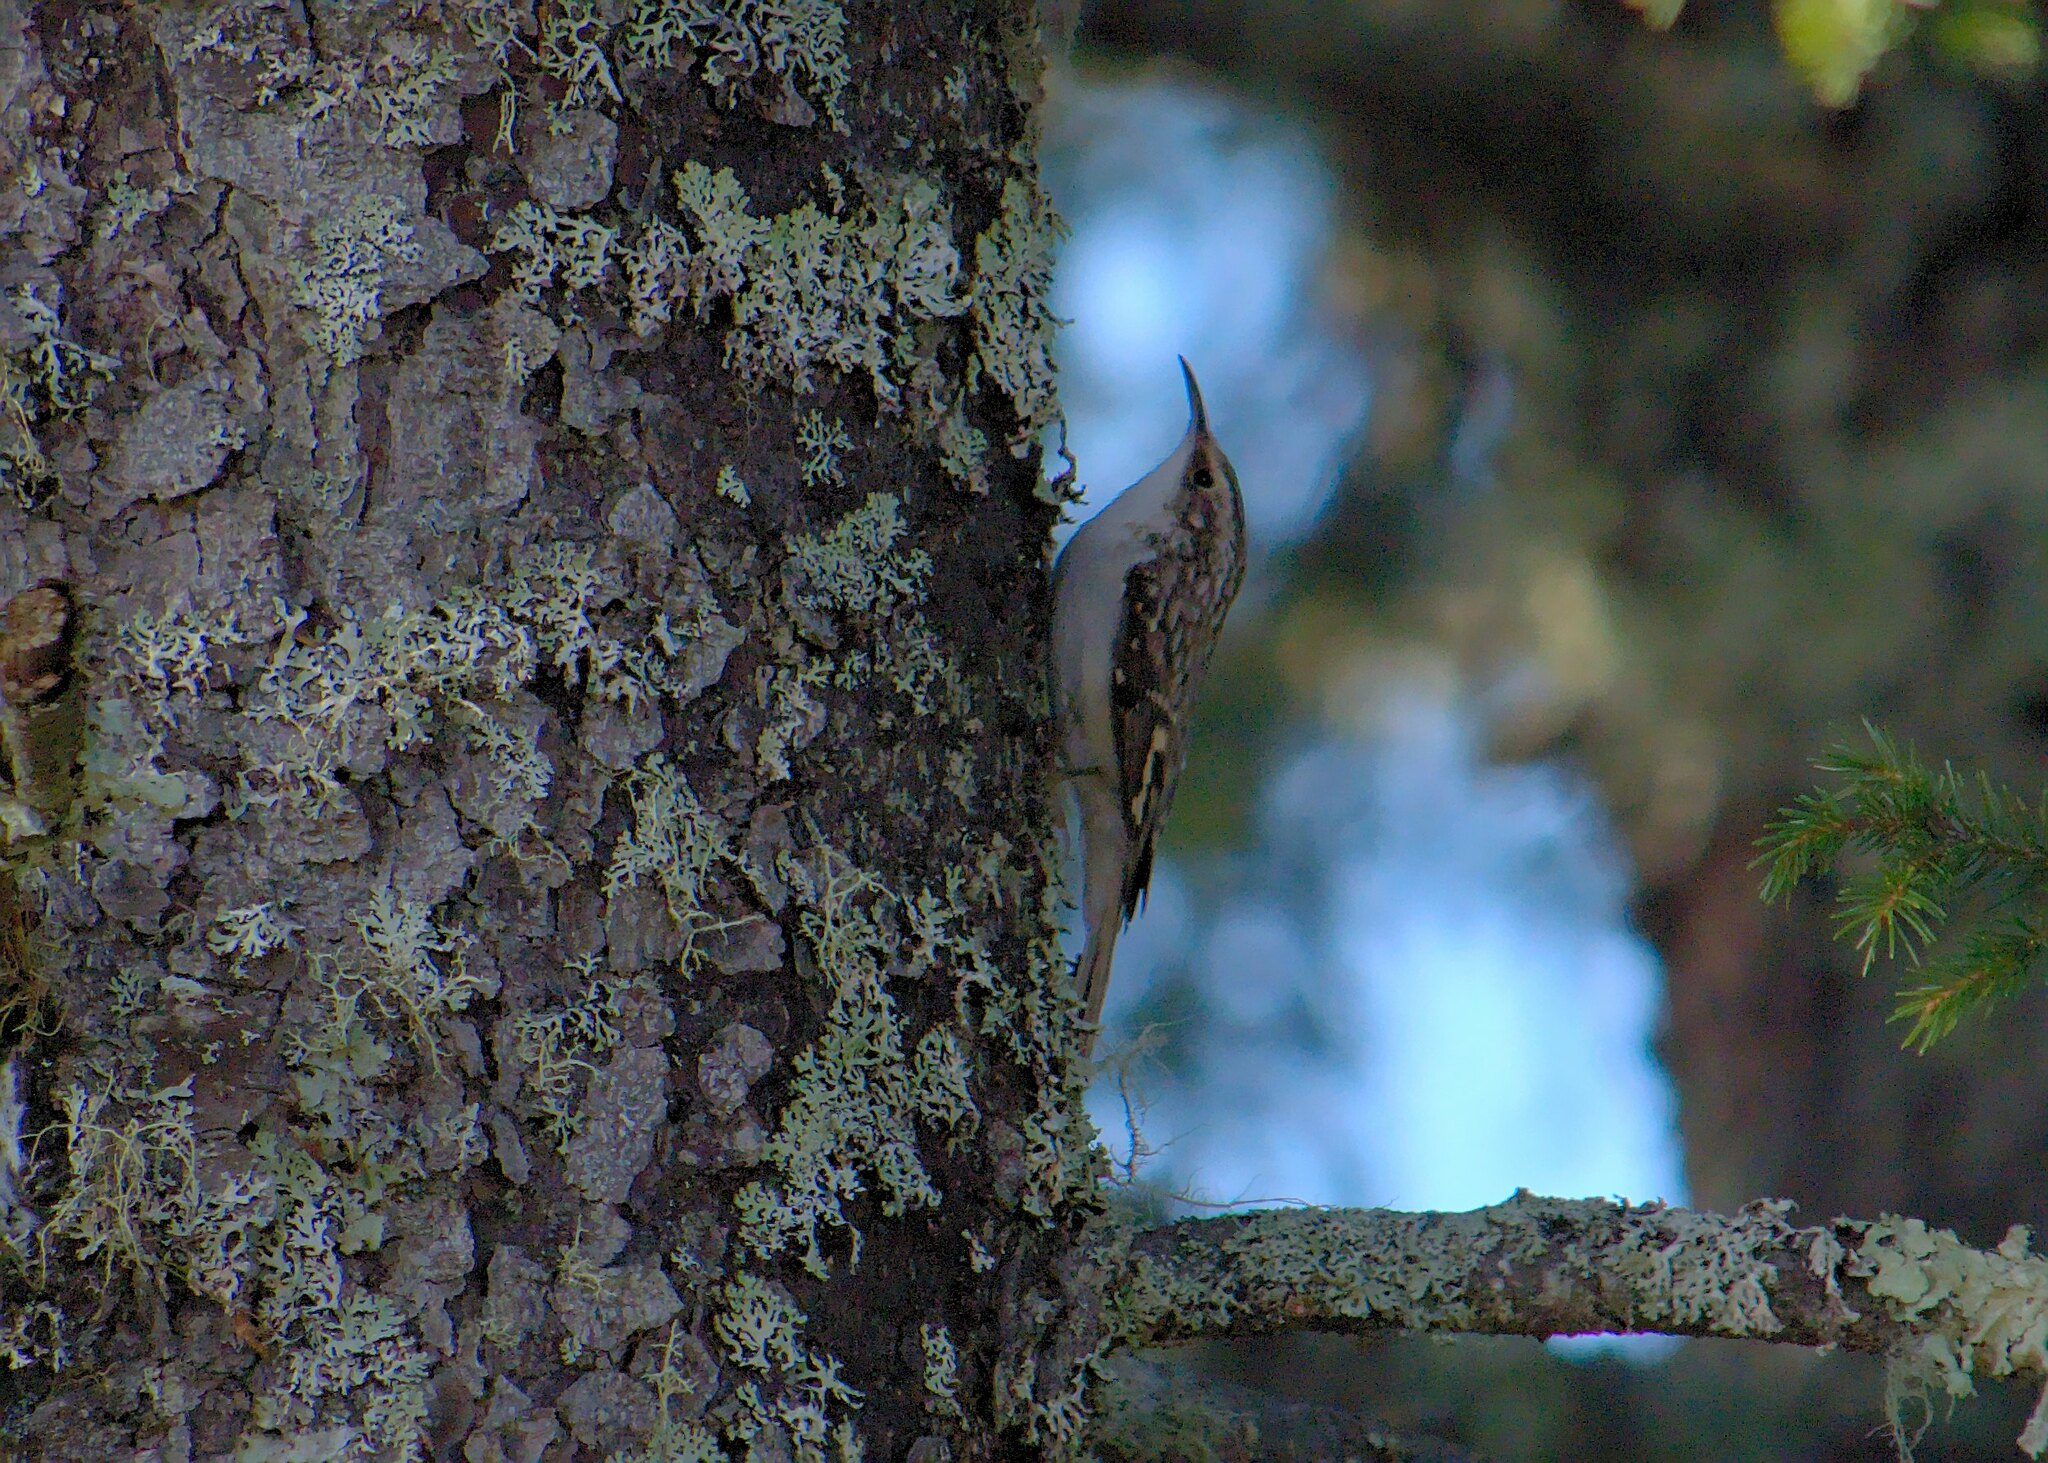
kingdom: Animalia
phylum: Chordata
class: Aves
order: Passeriformes
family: Certhiidae
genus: Certhia
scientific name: Certhia americana
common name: Brown creeper
